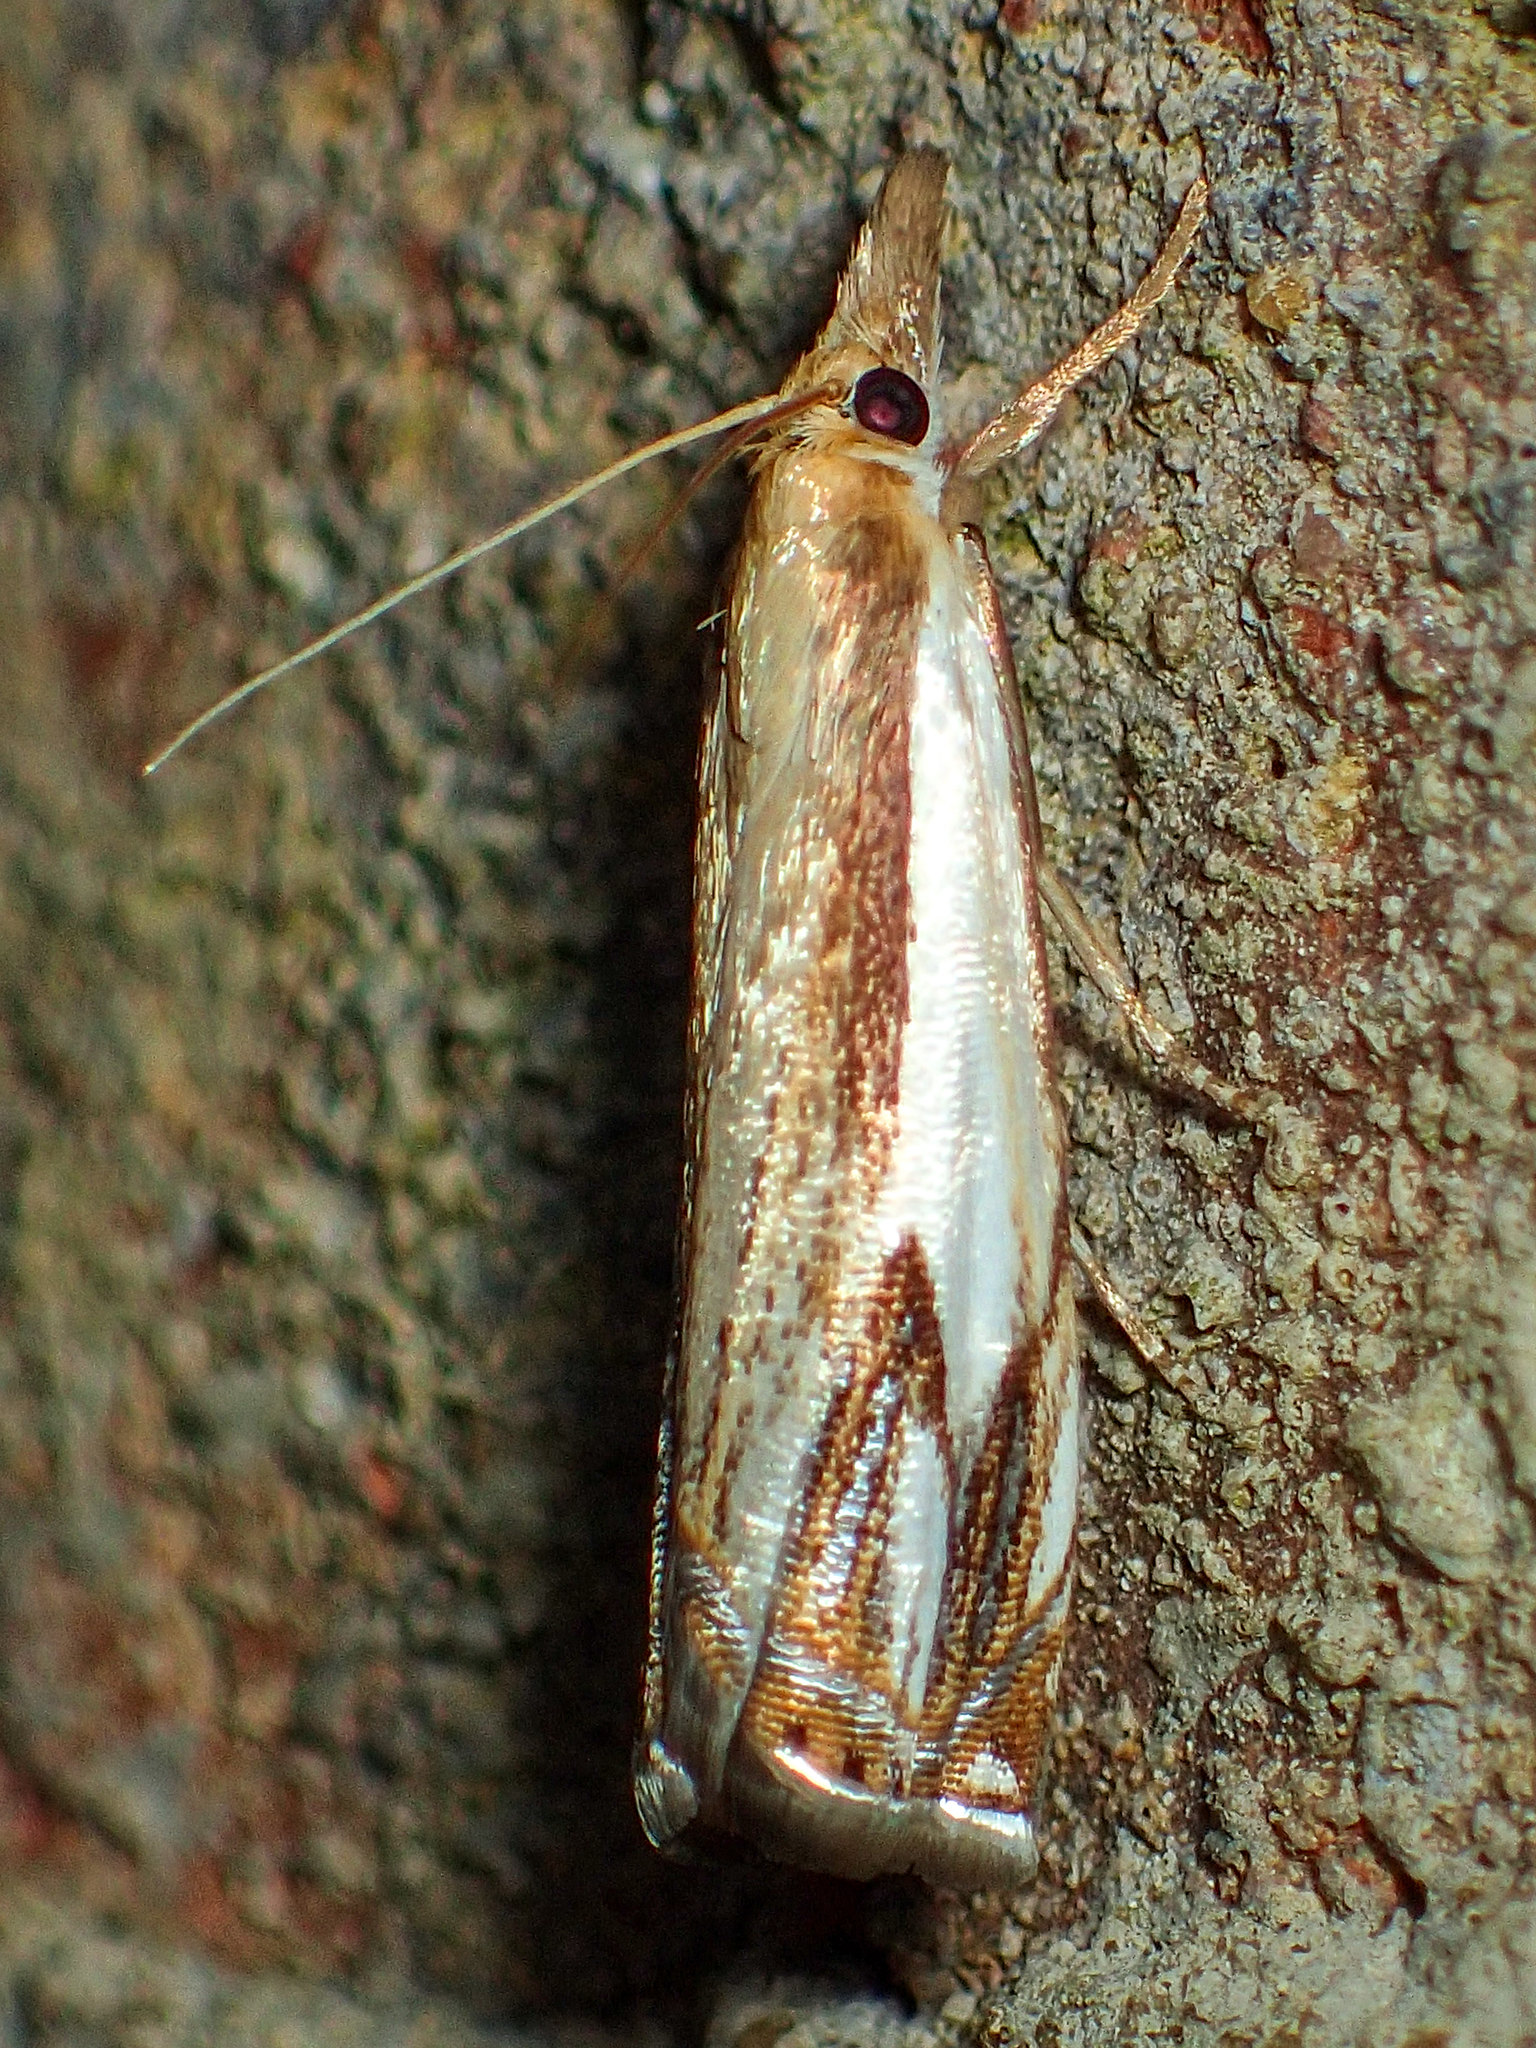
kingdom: Animalia
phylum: Arthropoda
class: Insecta
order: Lepidoptera
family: Crambidae
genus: Crambus
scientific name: Crambus agitatellus
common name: Double-banded grass-veneer
